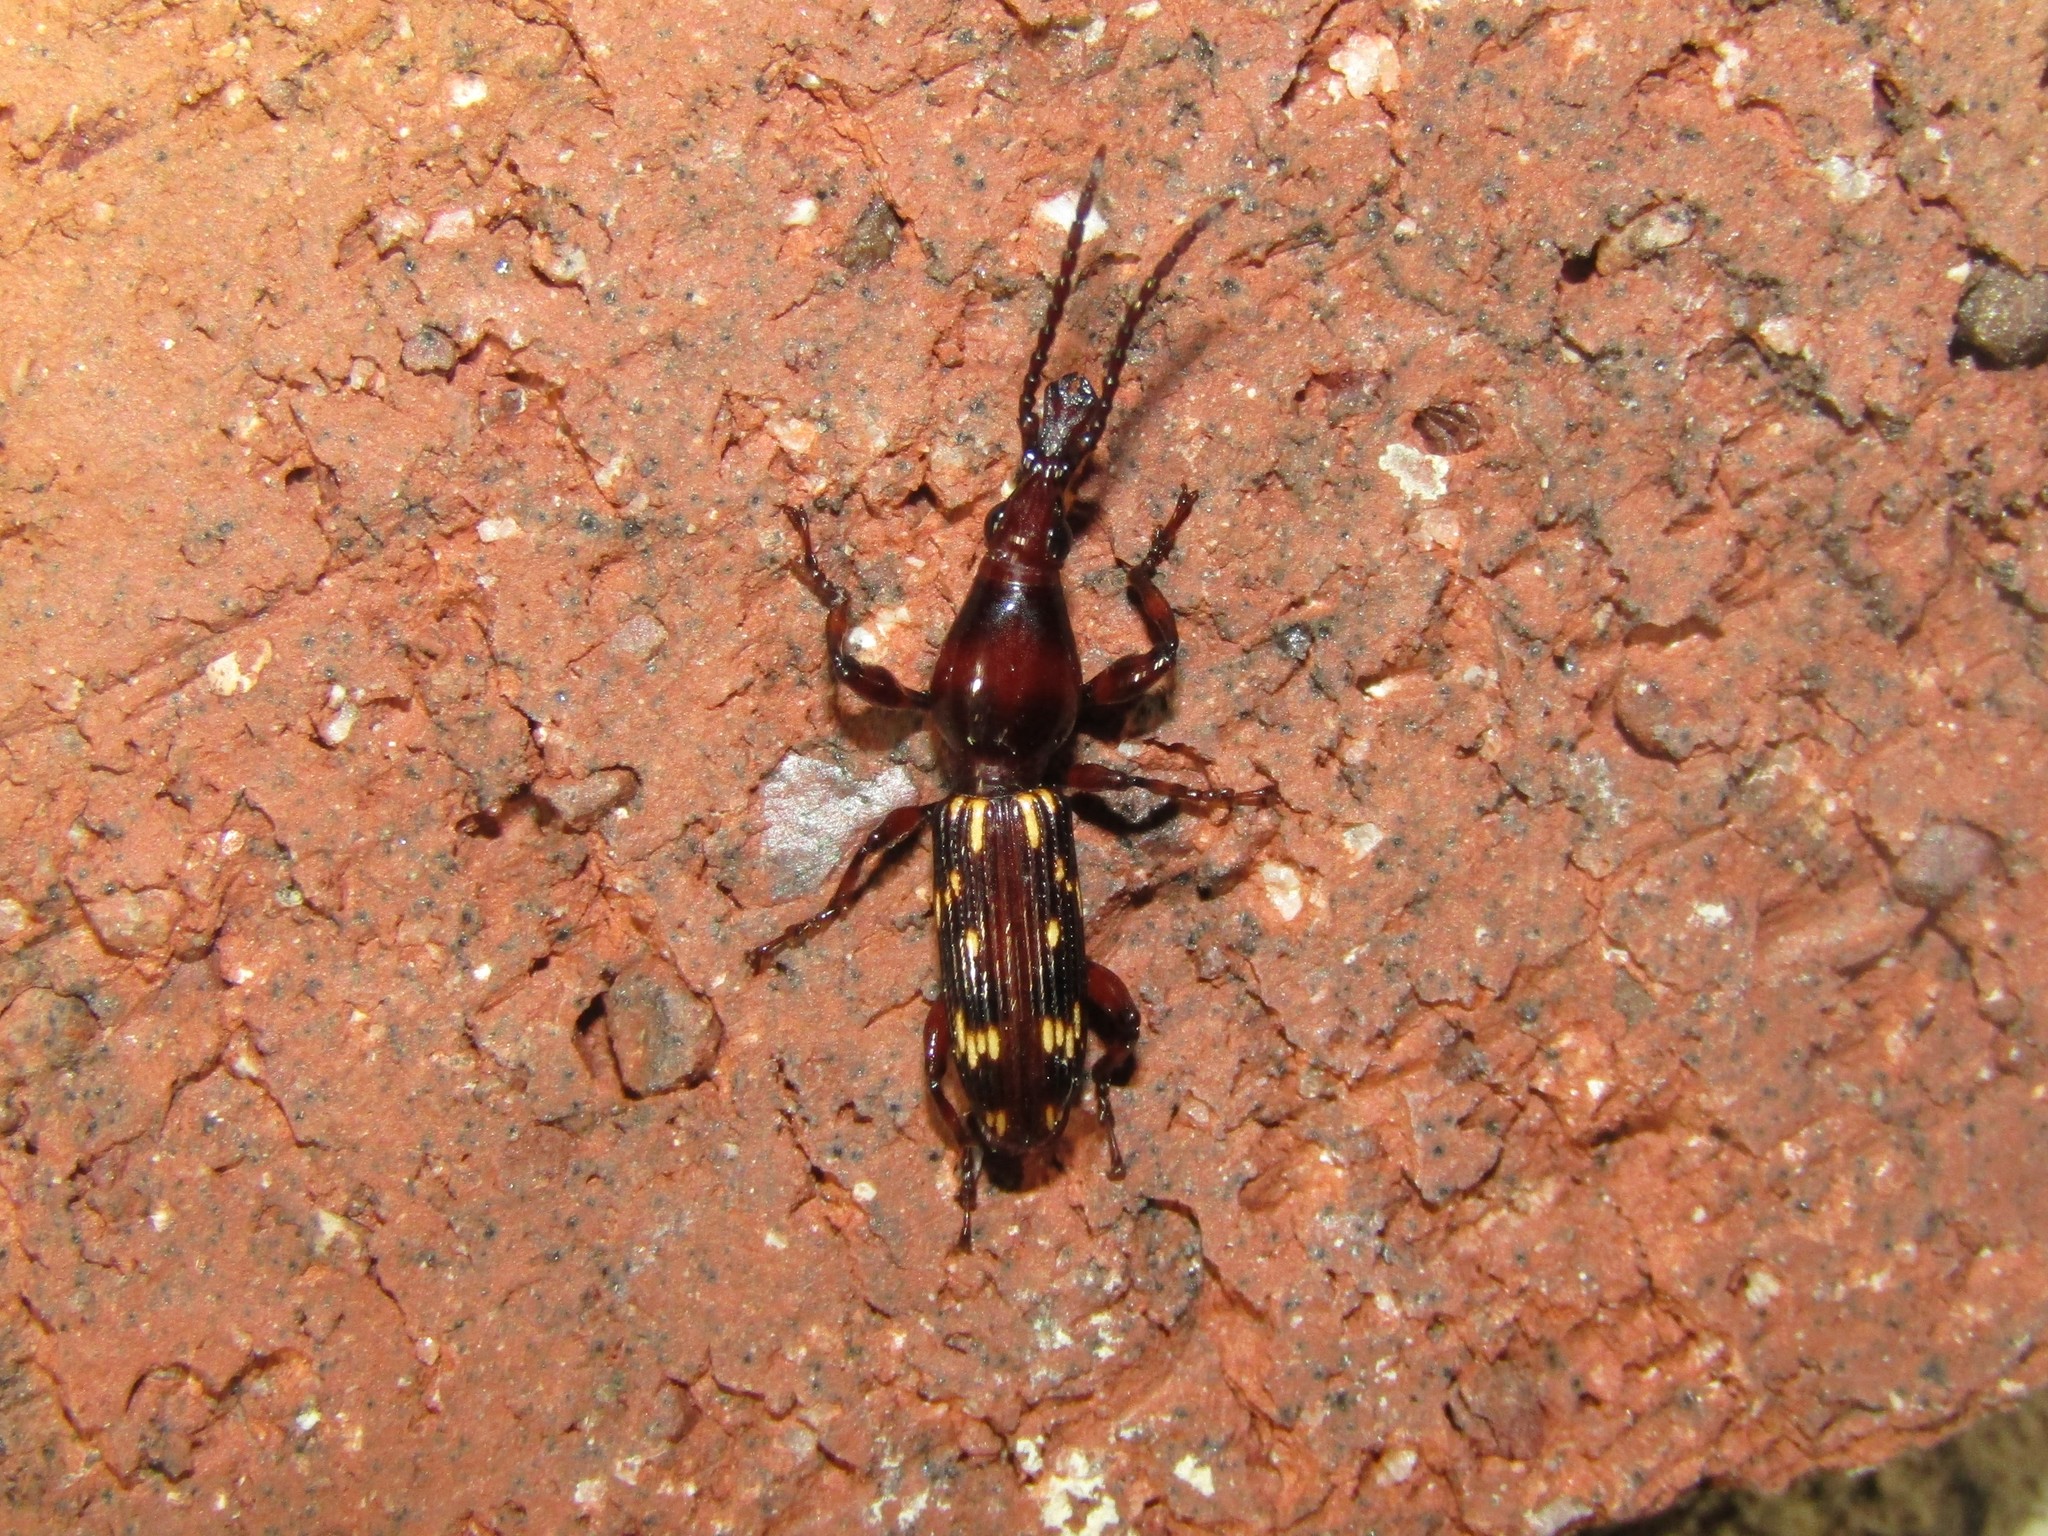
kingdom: Animalia
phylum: Arthropoda
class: Insecta
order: Coleoptera
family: Brentidae
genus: Arrenodes
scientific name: Arrenodes minutus
